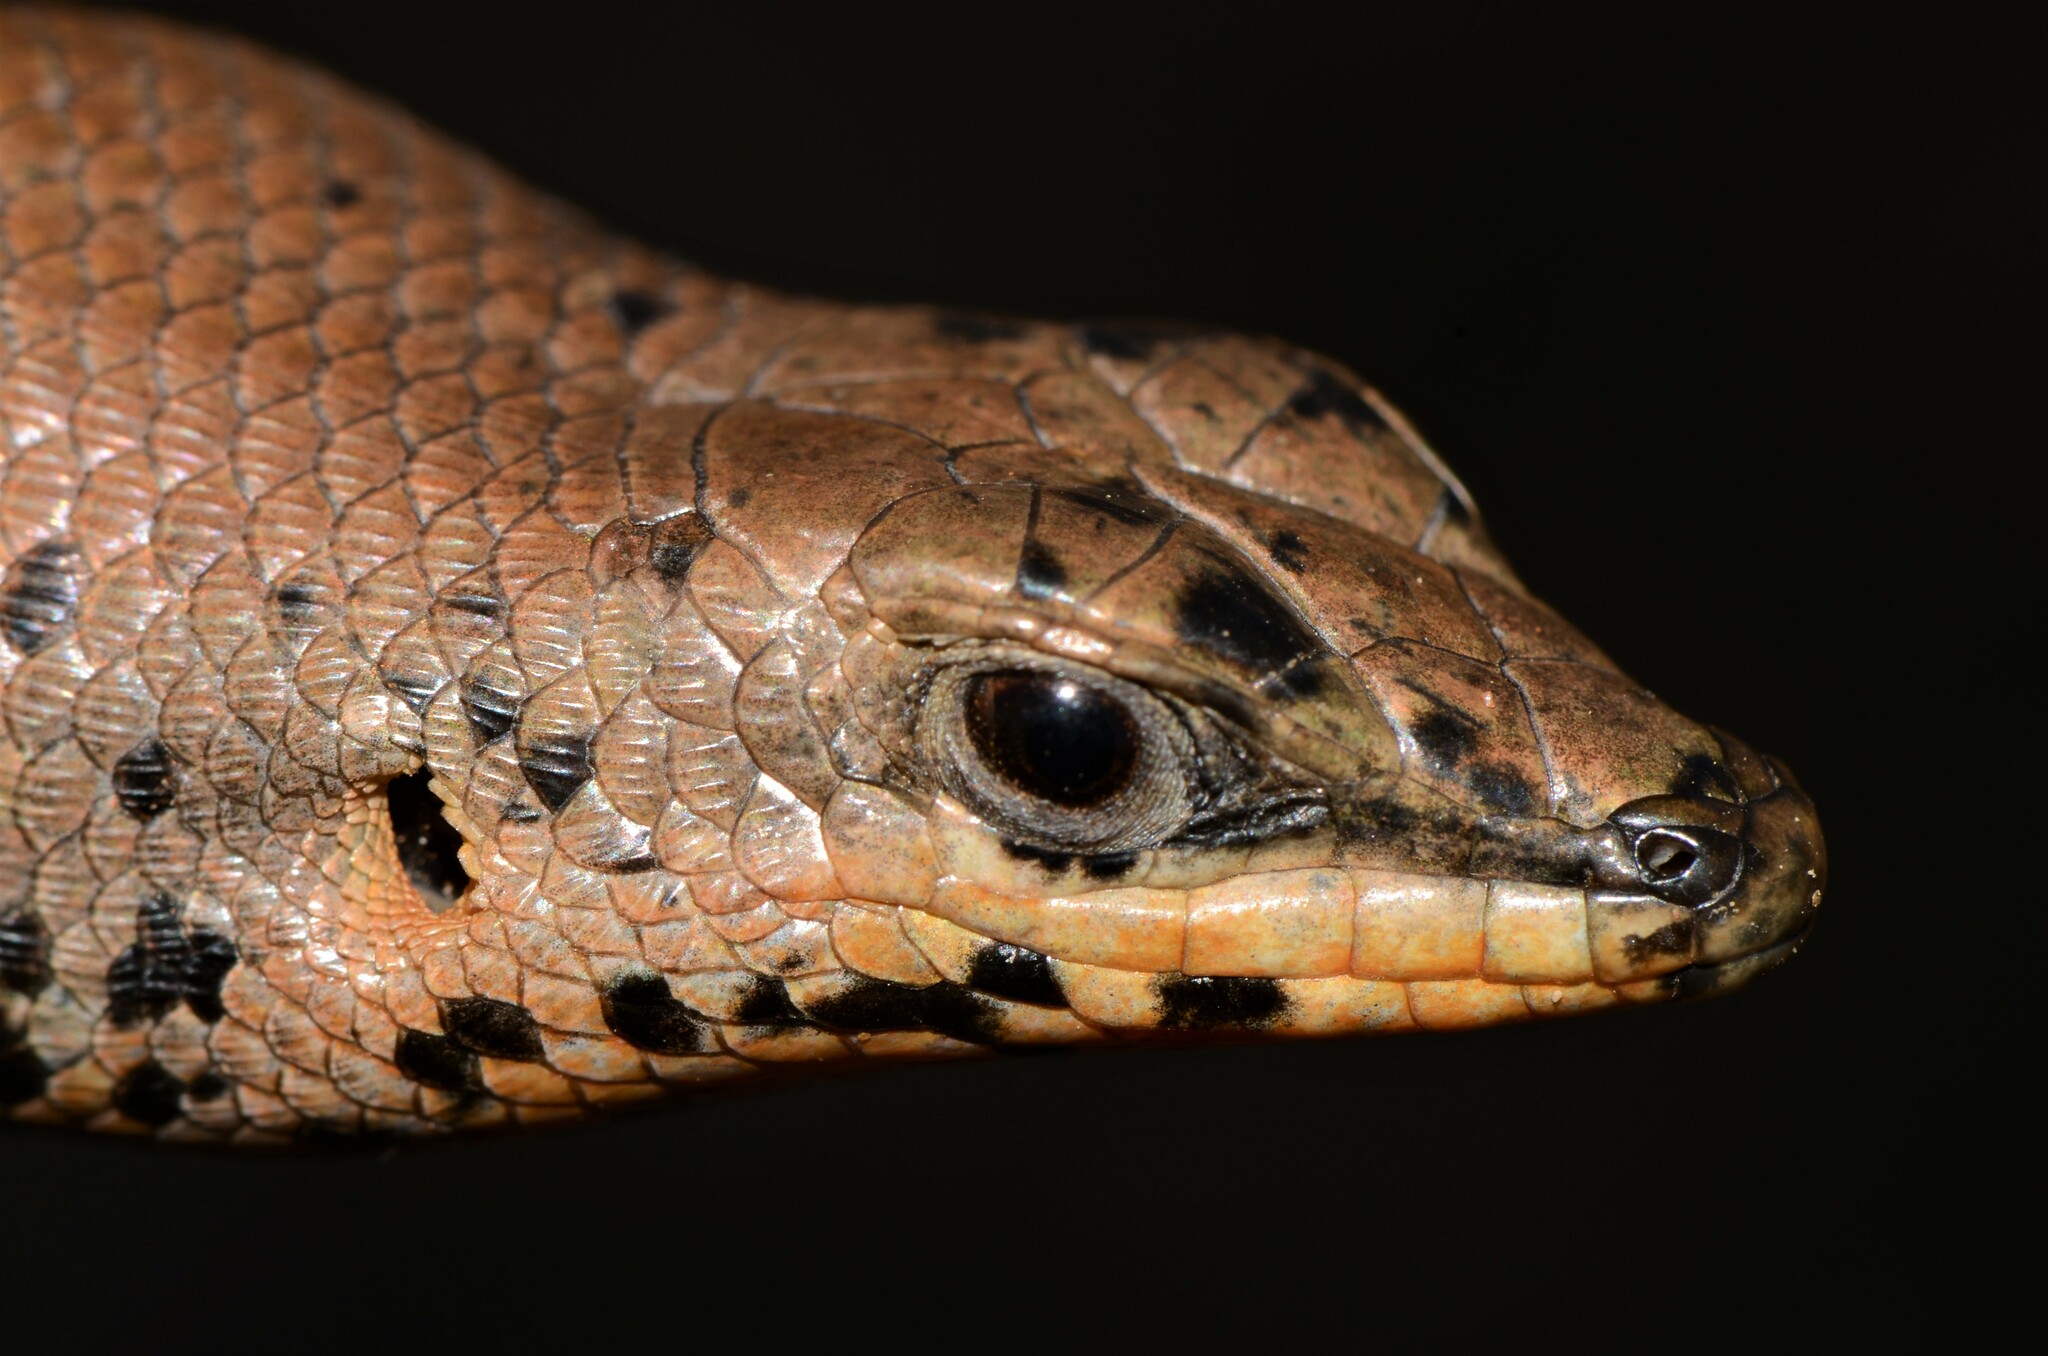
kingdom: Animalia
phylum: Chordata
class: Squamata
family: Scincidae
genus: Trachylepis
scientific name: Trachylepis sulcata
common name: Western rock skink
